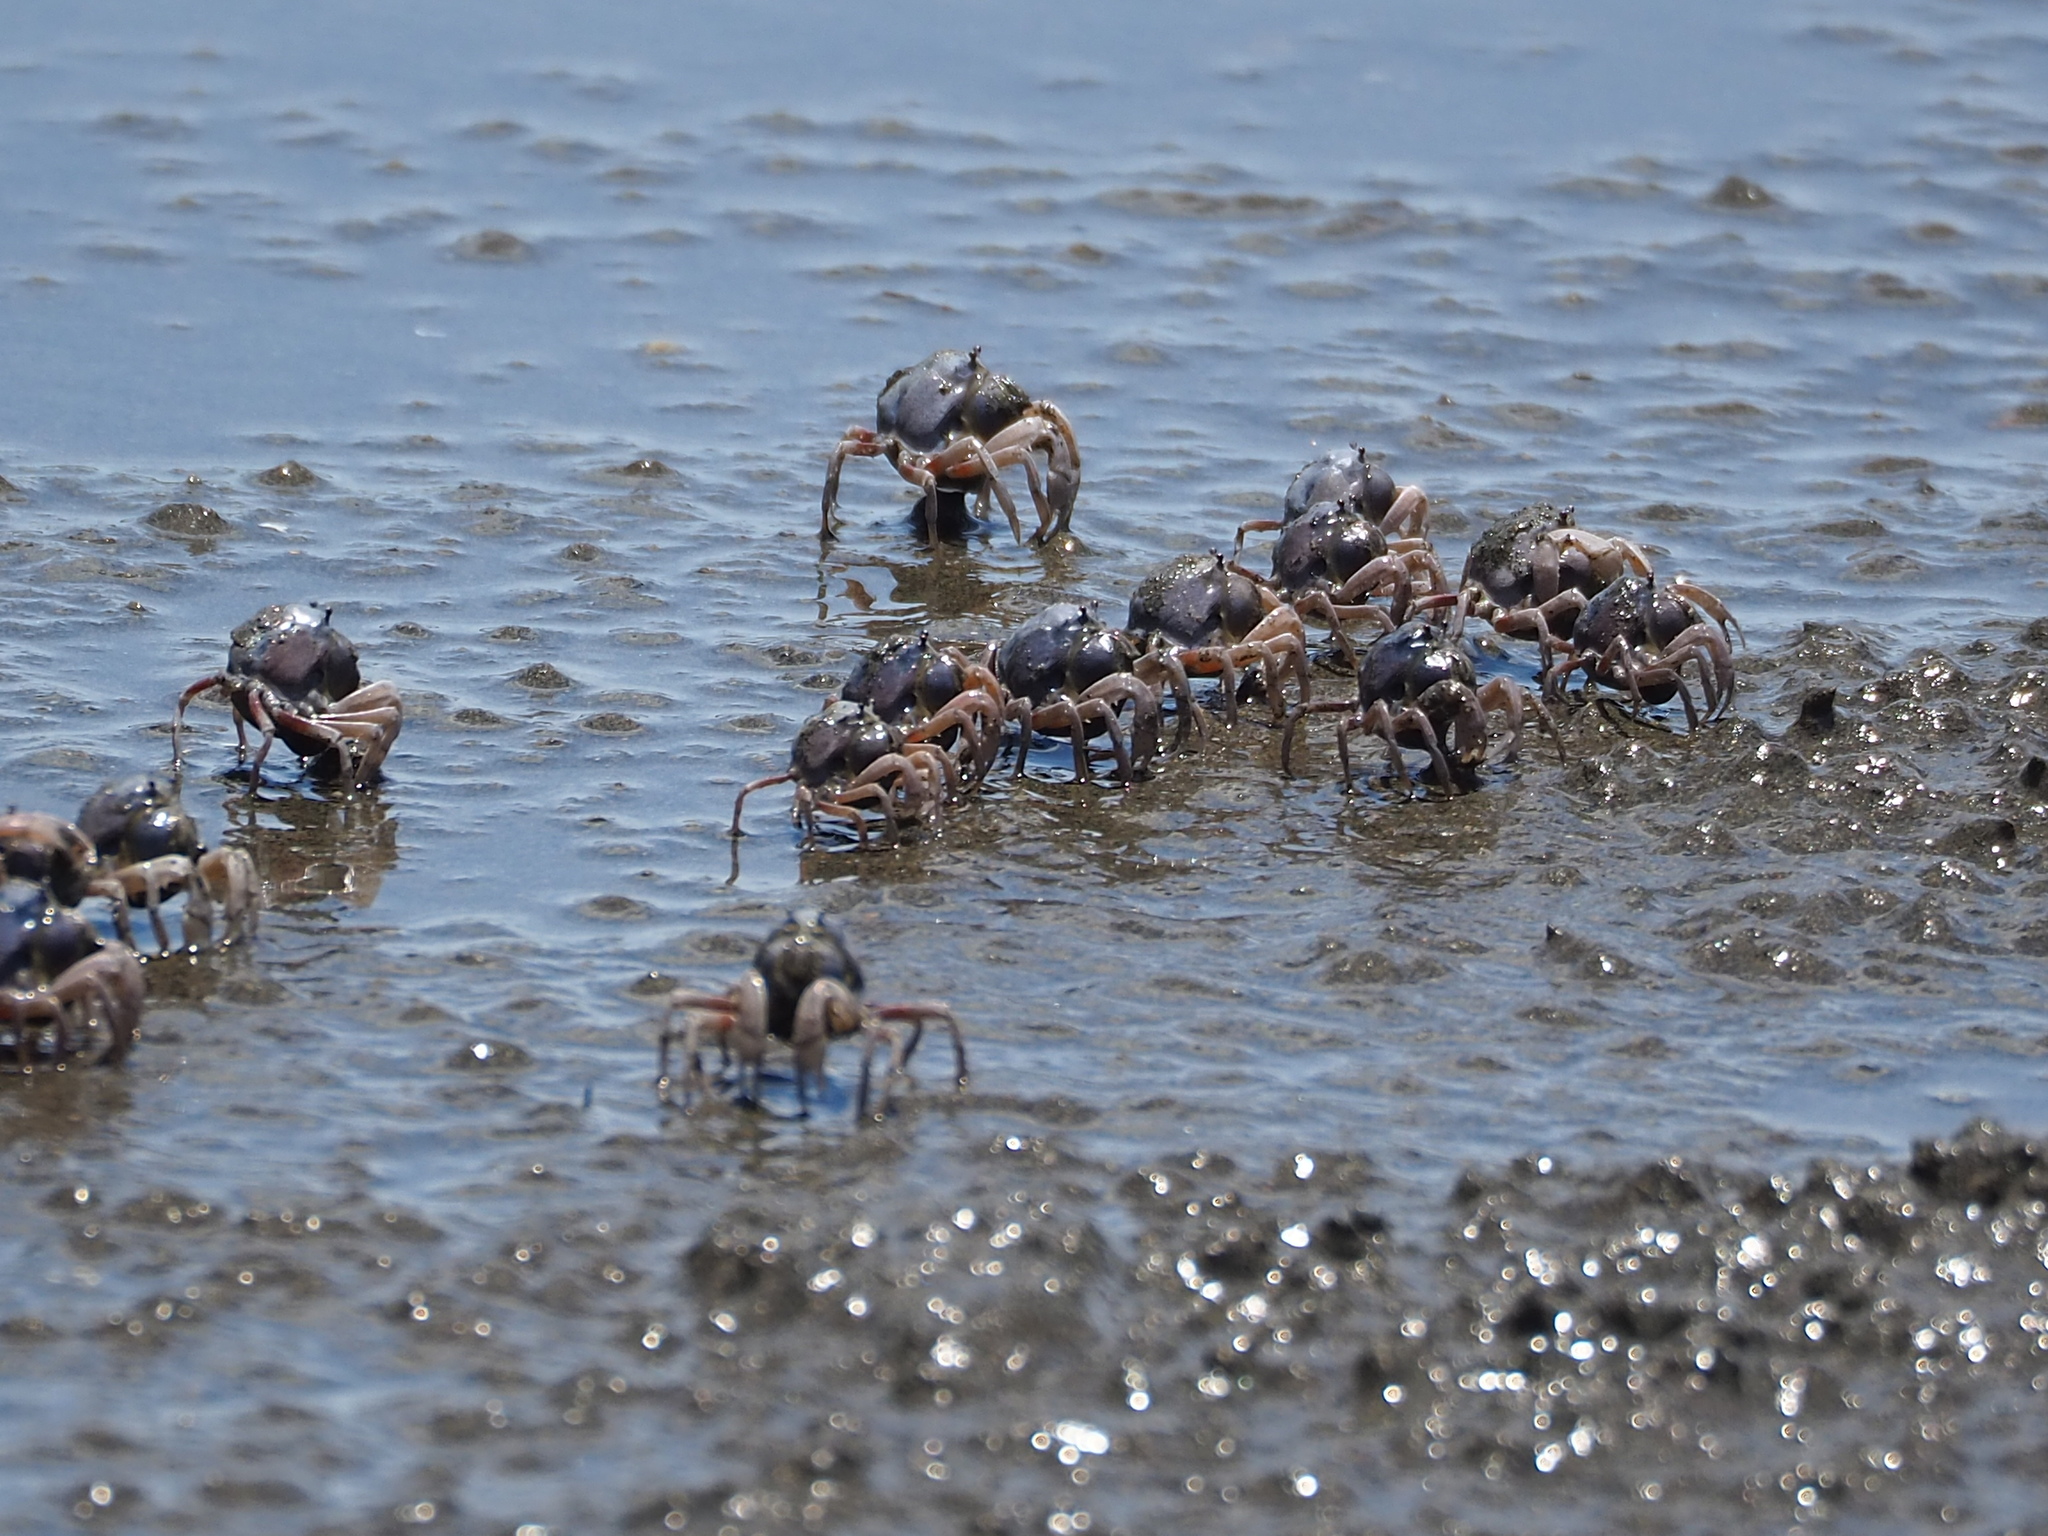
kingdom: Animalia
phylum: Arthropoda
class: Malacostraca
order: Decapoda
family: Mictyridae
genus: Mictyris
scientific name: Mictyris brevidactylus
